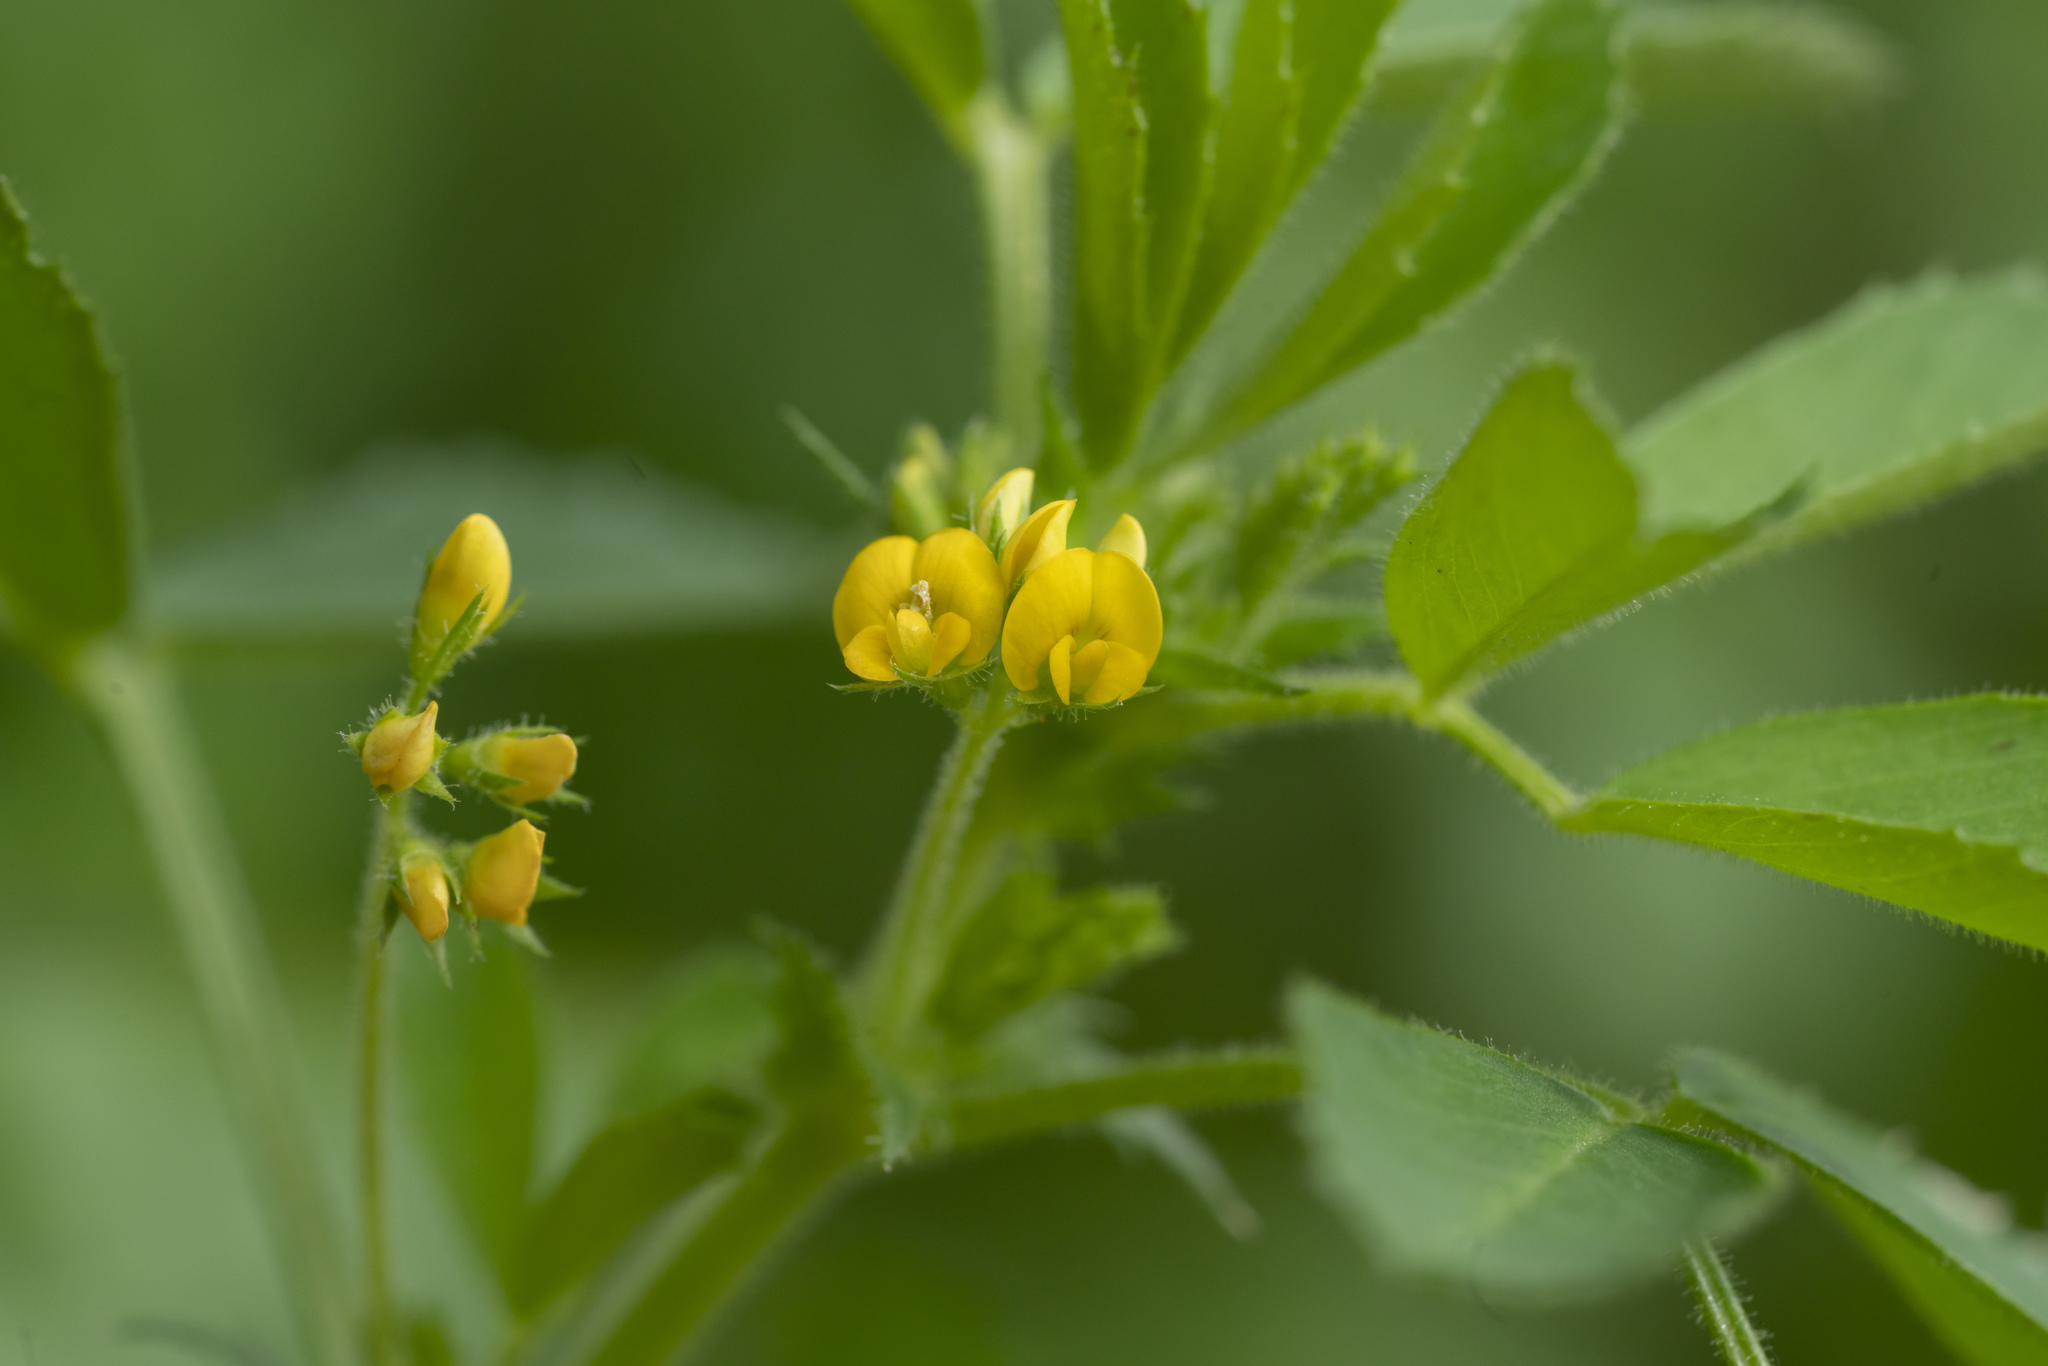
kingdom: Plantae
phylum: Tracheophyta
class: Magnoliopsida
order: Fabales
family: Fabaceae
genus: Medicago
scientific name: Medicago
